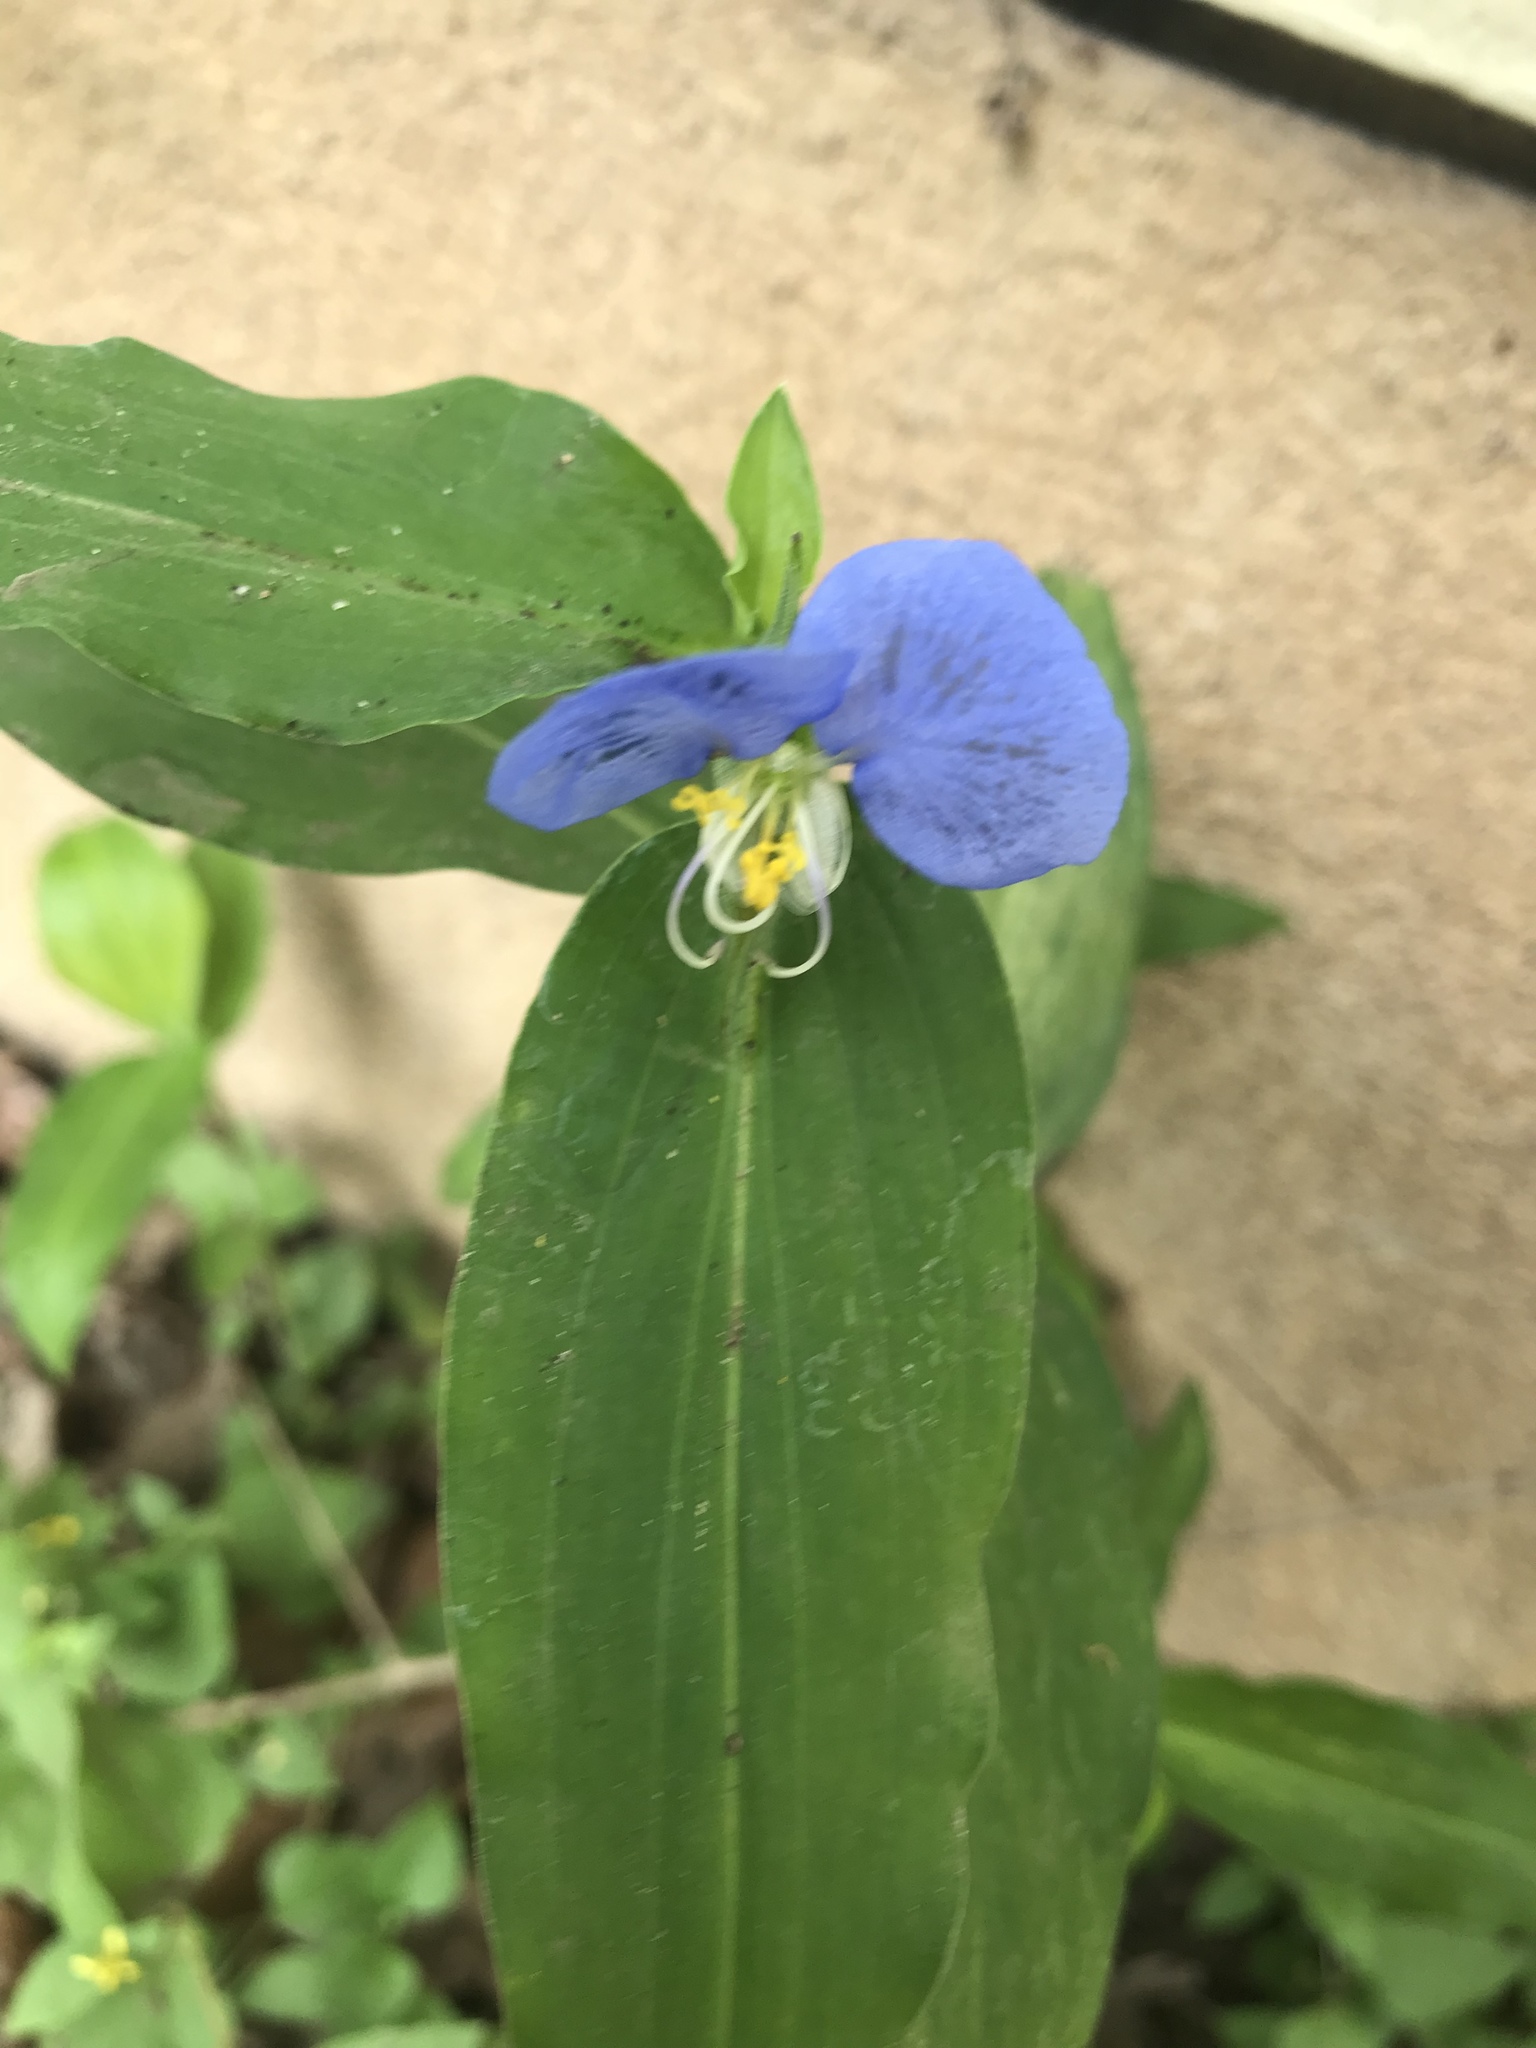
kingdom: Plantae
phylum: Tracheophyta
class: Liliopsida
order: Commelinales
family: Commelinaceae
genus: Commelina
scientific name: Commelina erecta
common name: Blousel blommetjie
